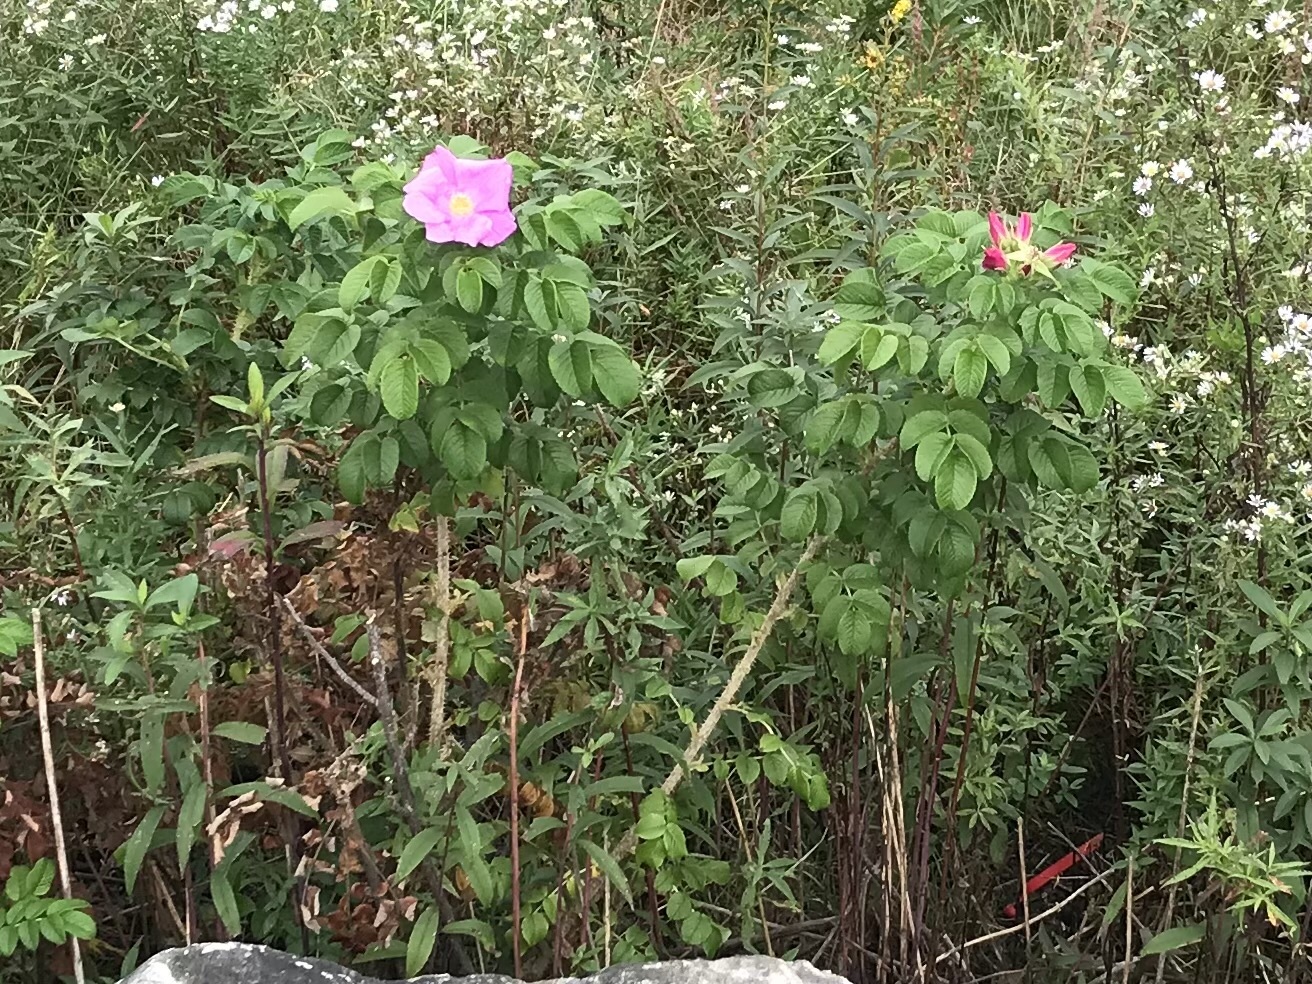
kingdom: Plantae
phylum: Tracheophyta
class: Magnoliopsida
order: Rosales
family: Rosaceae
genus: Rosa
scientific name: Rosa rugosa
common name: Japanese rose
